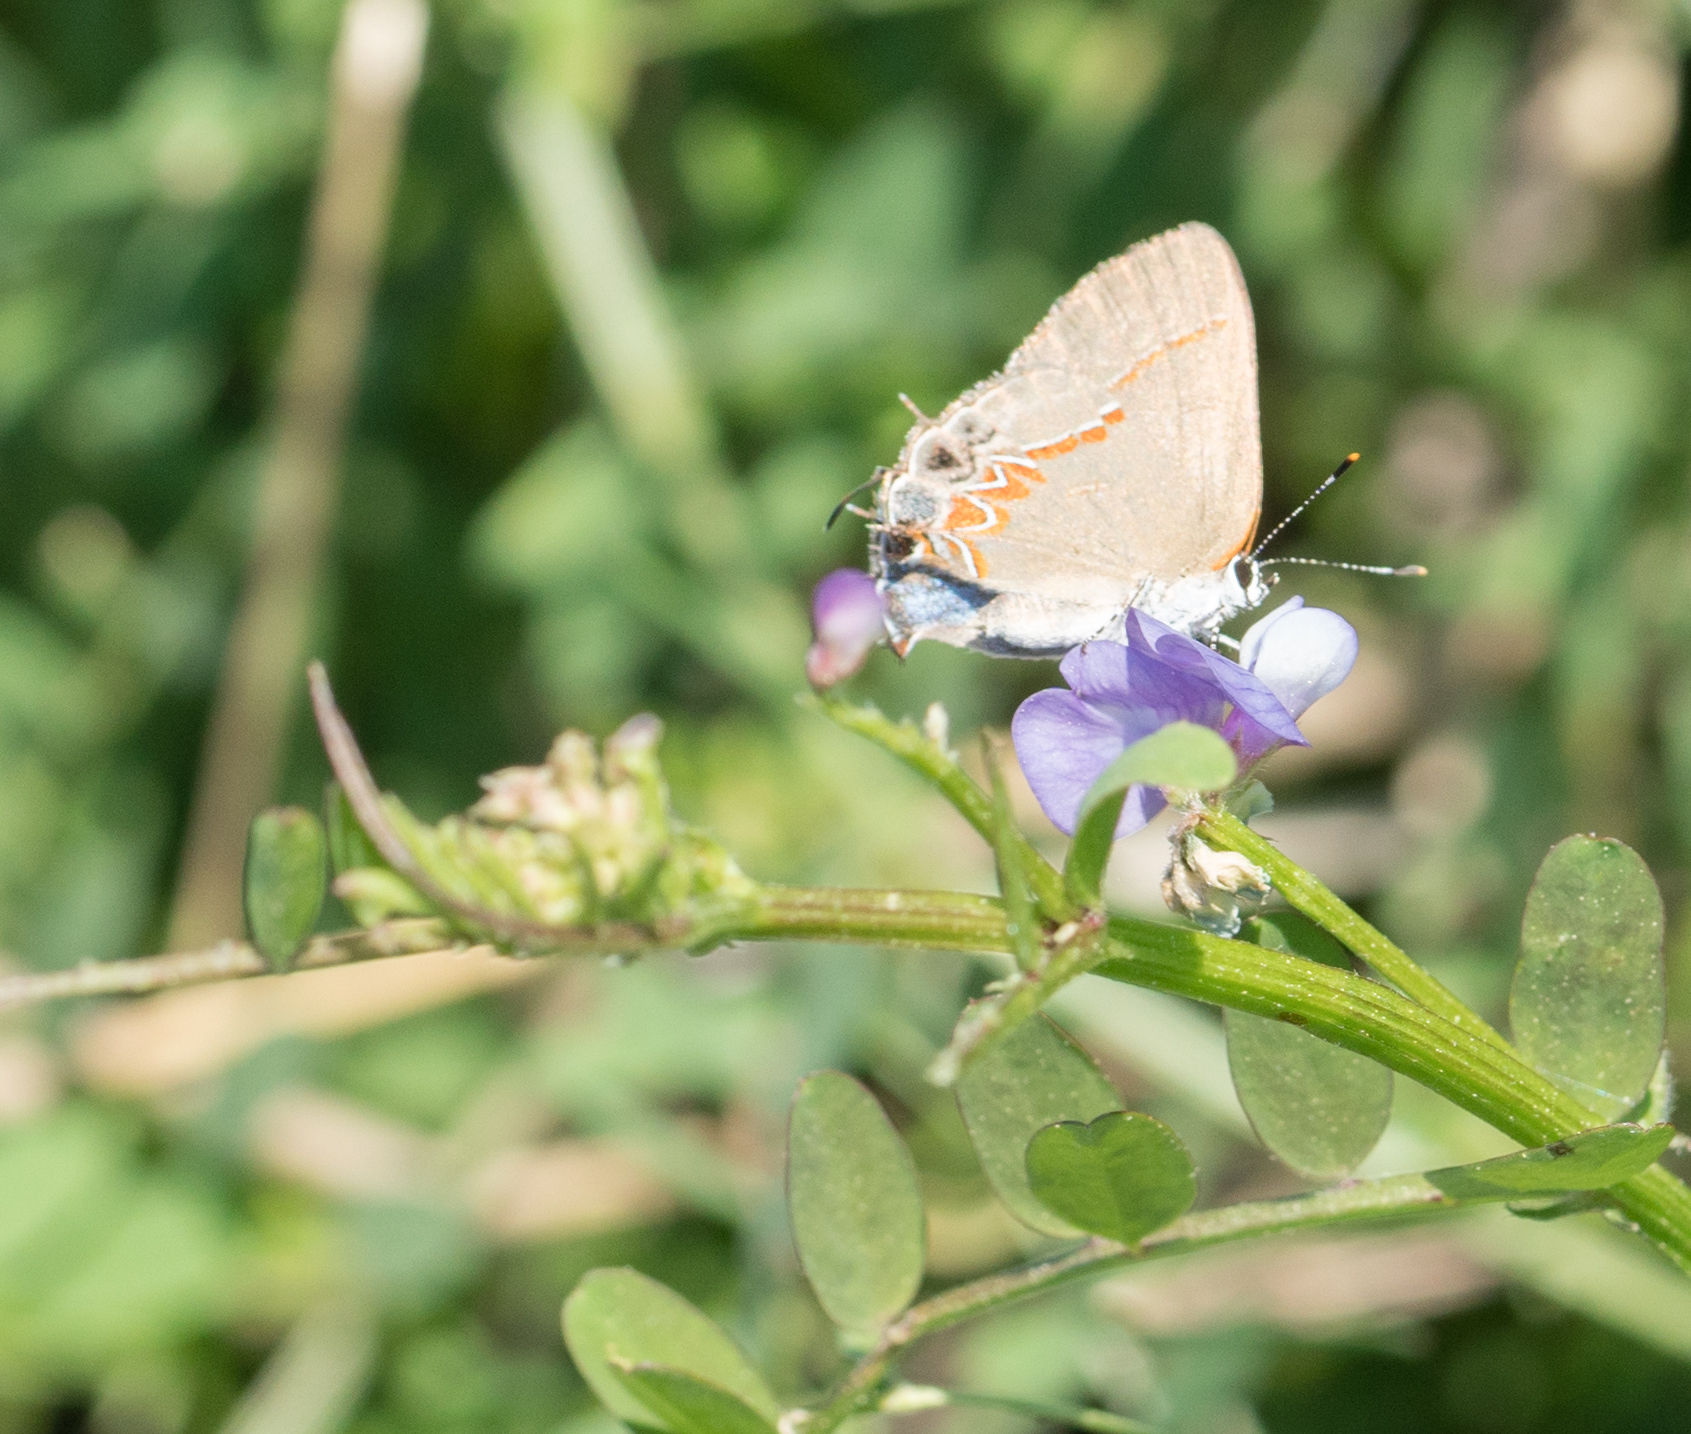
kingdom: Animalia
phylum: Arthropoda
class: Insecta
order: Lepidoptera
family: Lycaenidae
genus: Calycopis
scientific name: Calycopis isobeon
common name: Dusky-blue groundstreak
